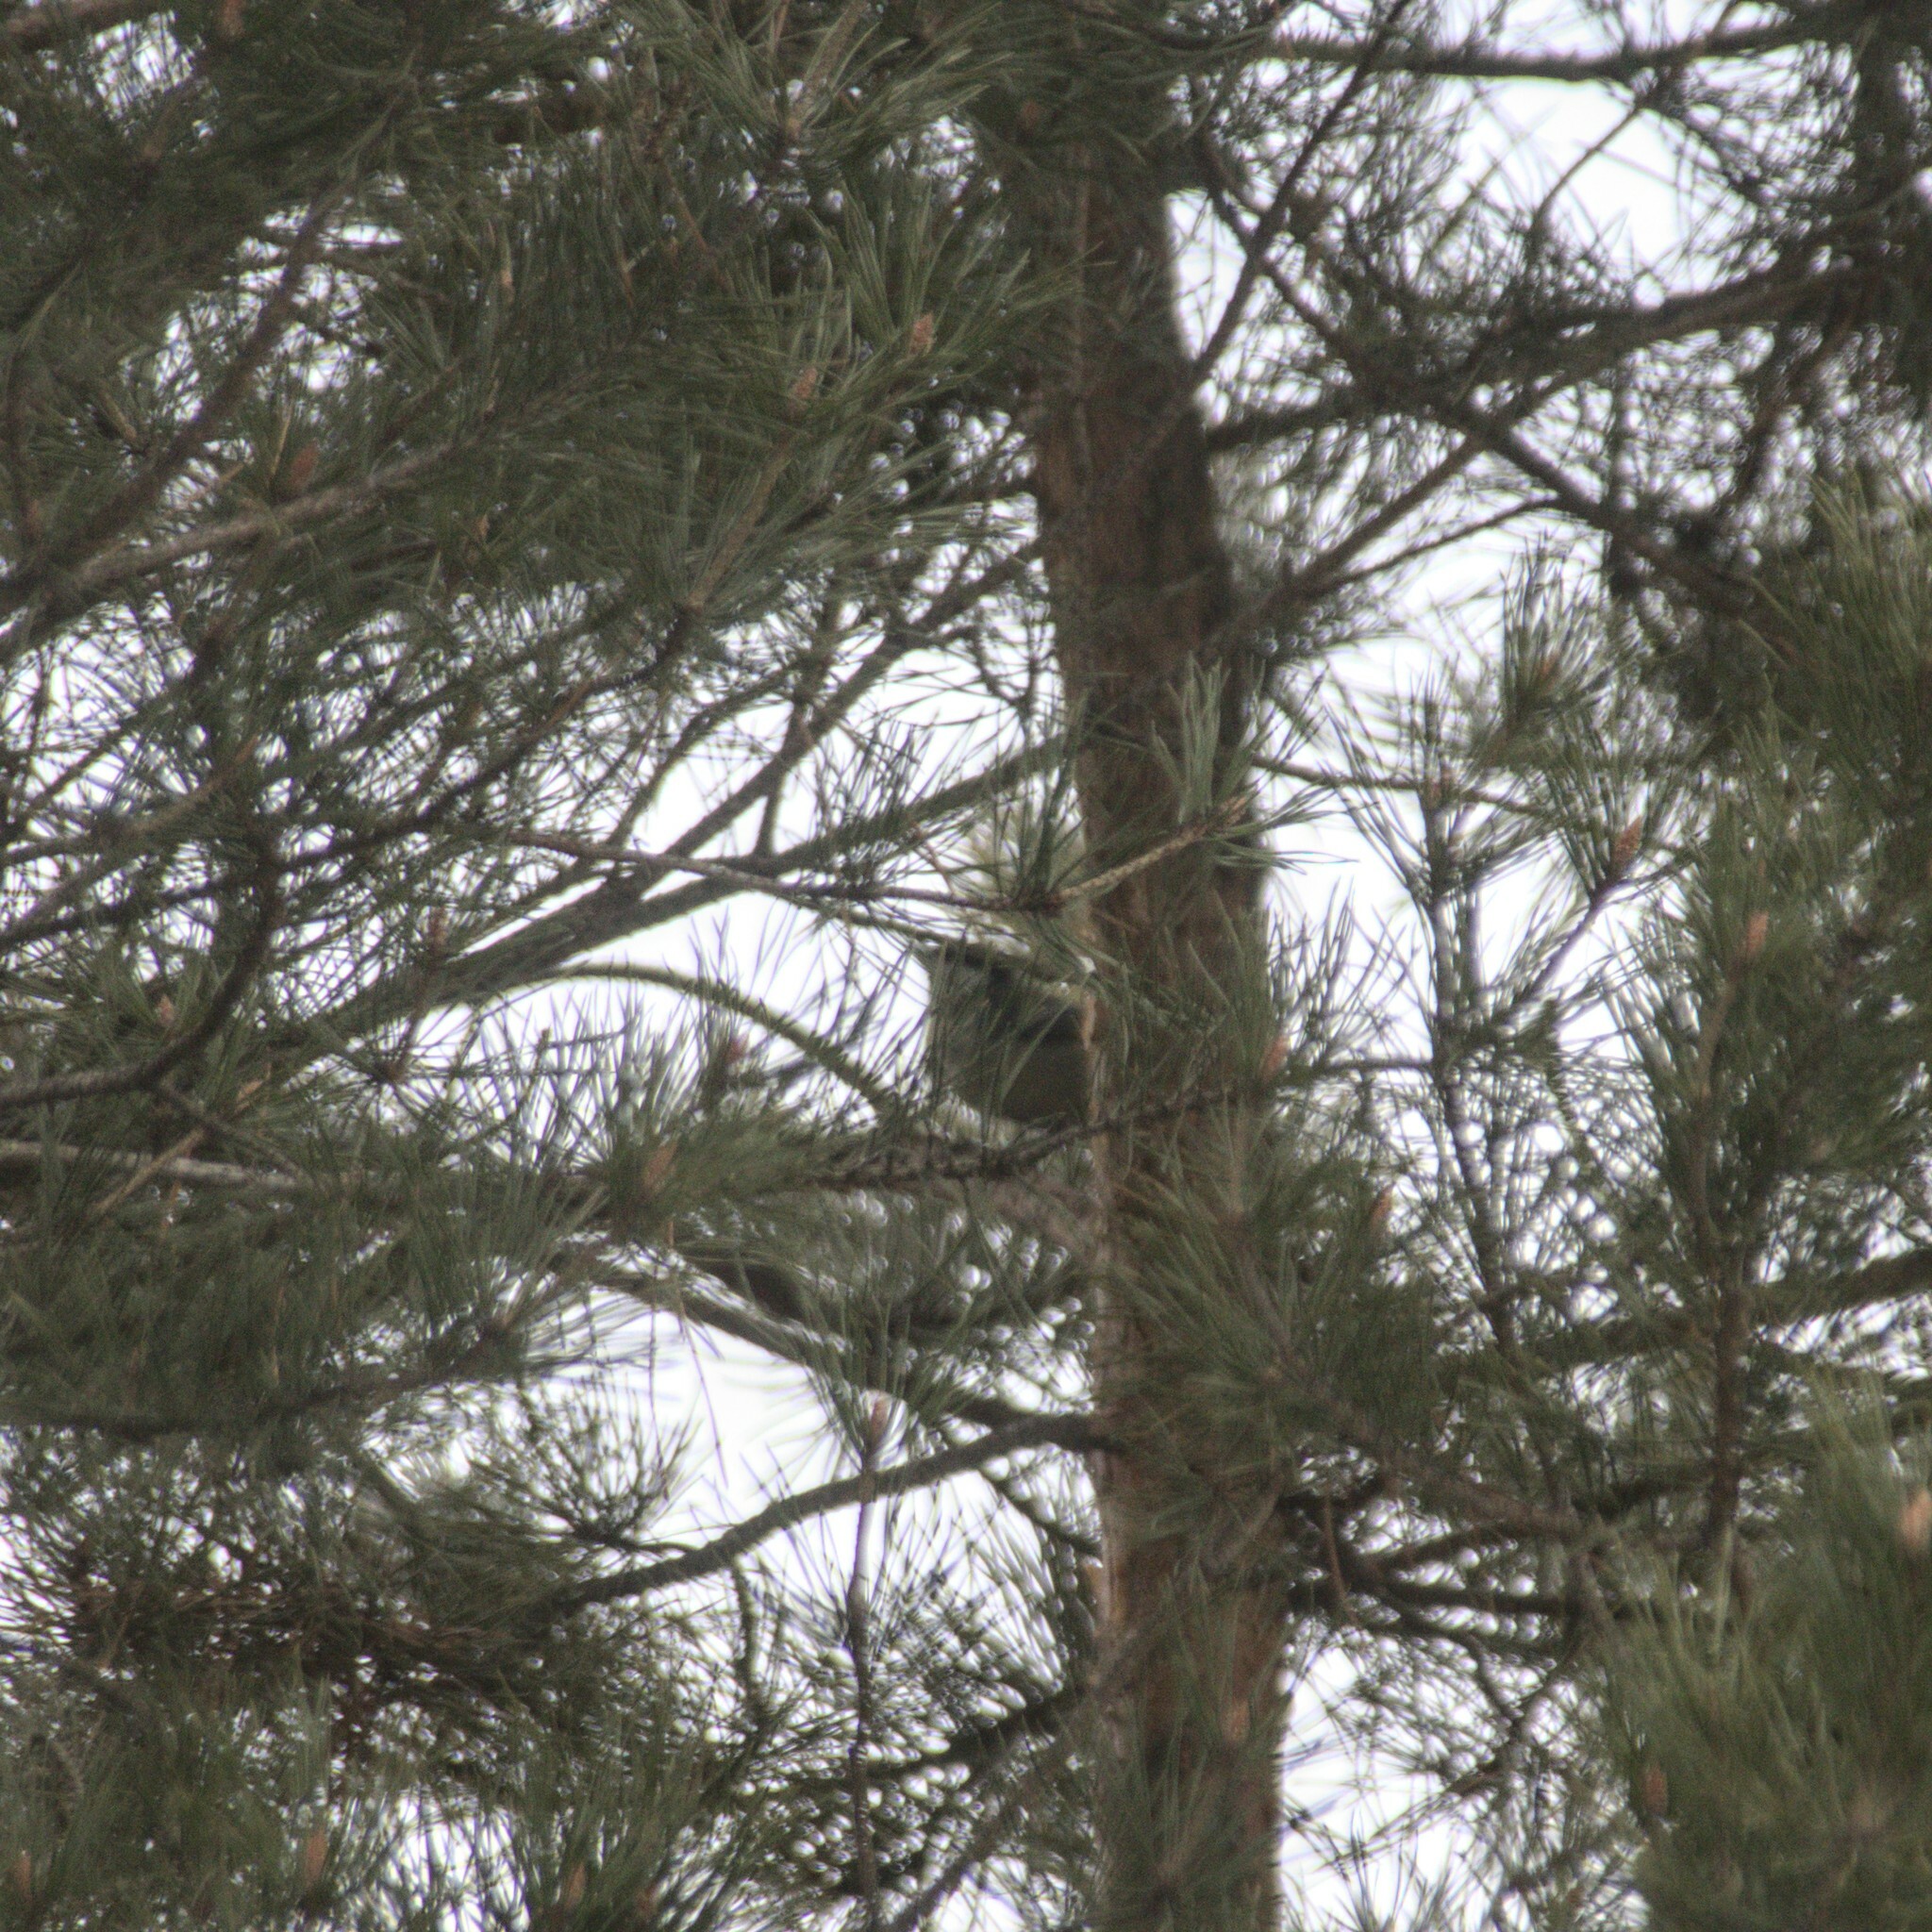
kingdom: Animalia
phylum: Chordata
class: Aves
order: Passeriformes
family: Sittidae
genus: Sitta
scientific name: Sitta europaea
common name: Eurasian nuthatch
